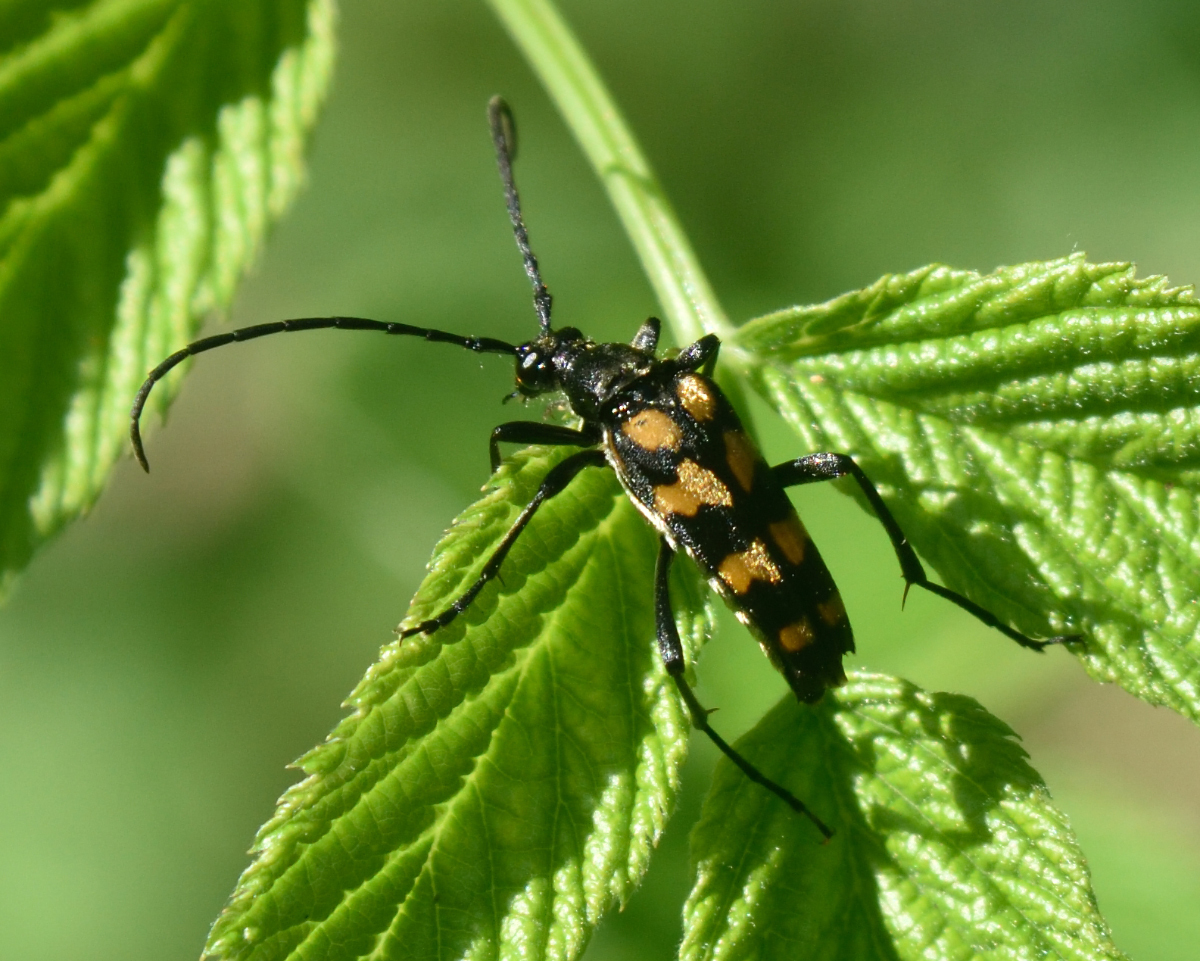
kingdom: Animalia
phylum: Arthropoda
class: Insecta
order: Coleoptera
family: Cerambycidae
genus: Leptura
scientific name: Leptura quadrifasciata
